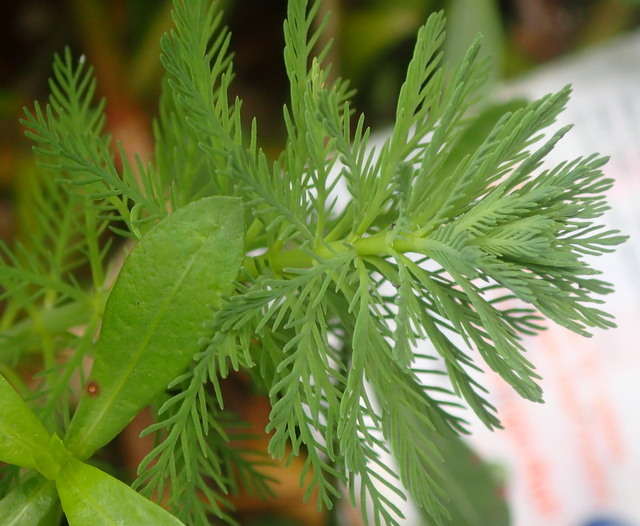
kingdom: Plantae
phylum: Tracheophyta
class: Magnoliopsida
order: Saxifragales
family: Haloragaceae
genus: Myriophyllum
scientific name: Myriophyllum aquaticum
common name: Parrot's feather
